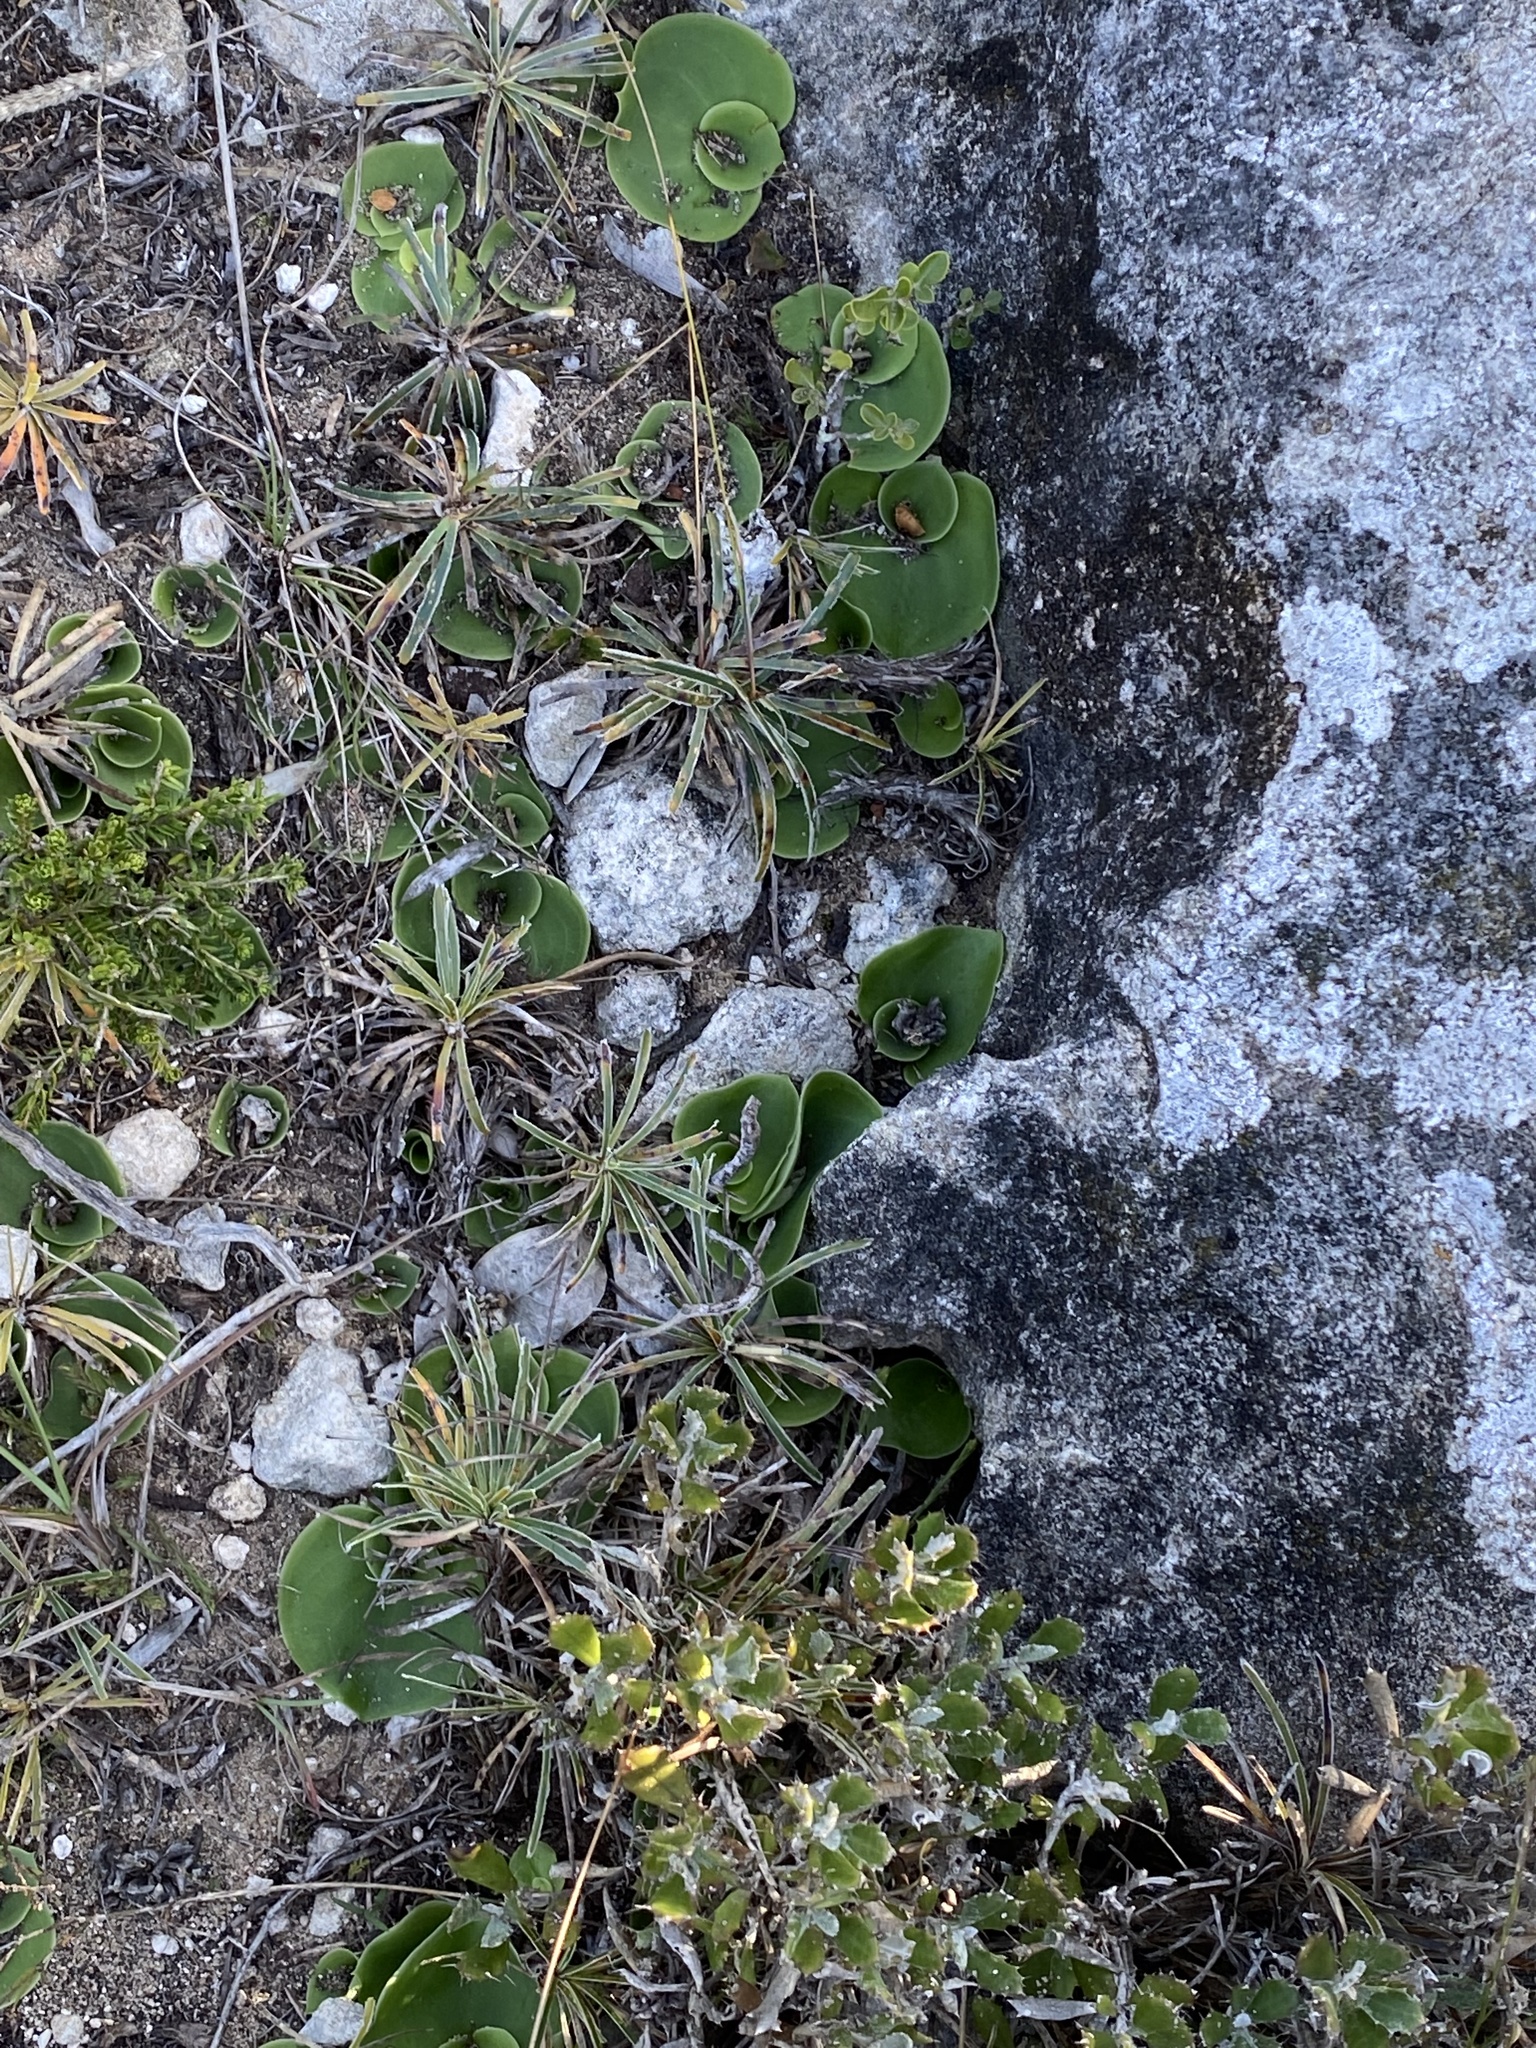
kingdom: Plantae
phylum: Tracheophyta
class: Liliopsida
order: Asparagales
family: Orchidaceae
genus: Holothrix
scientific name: Holothrix burchellii
